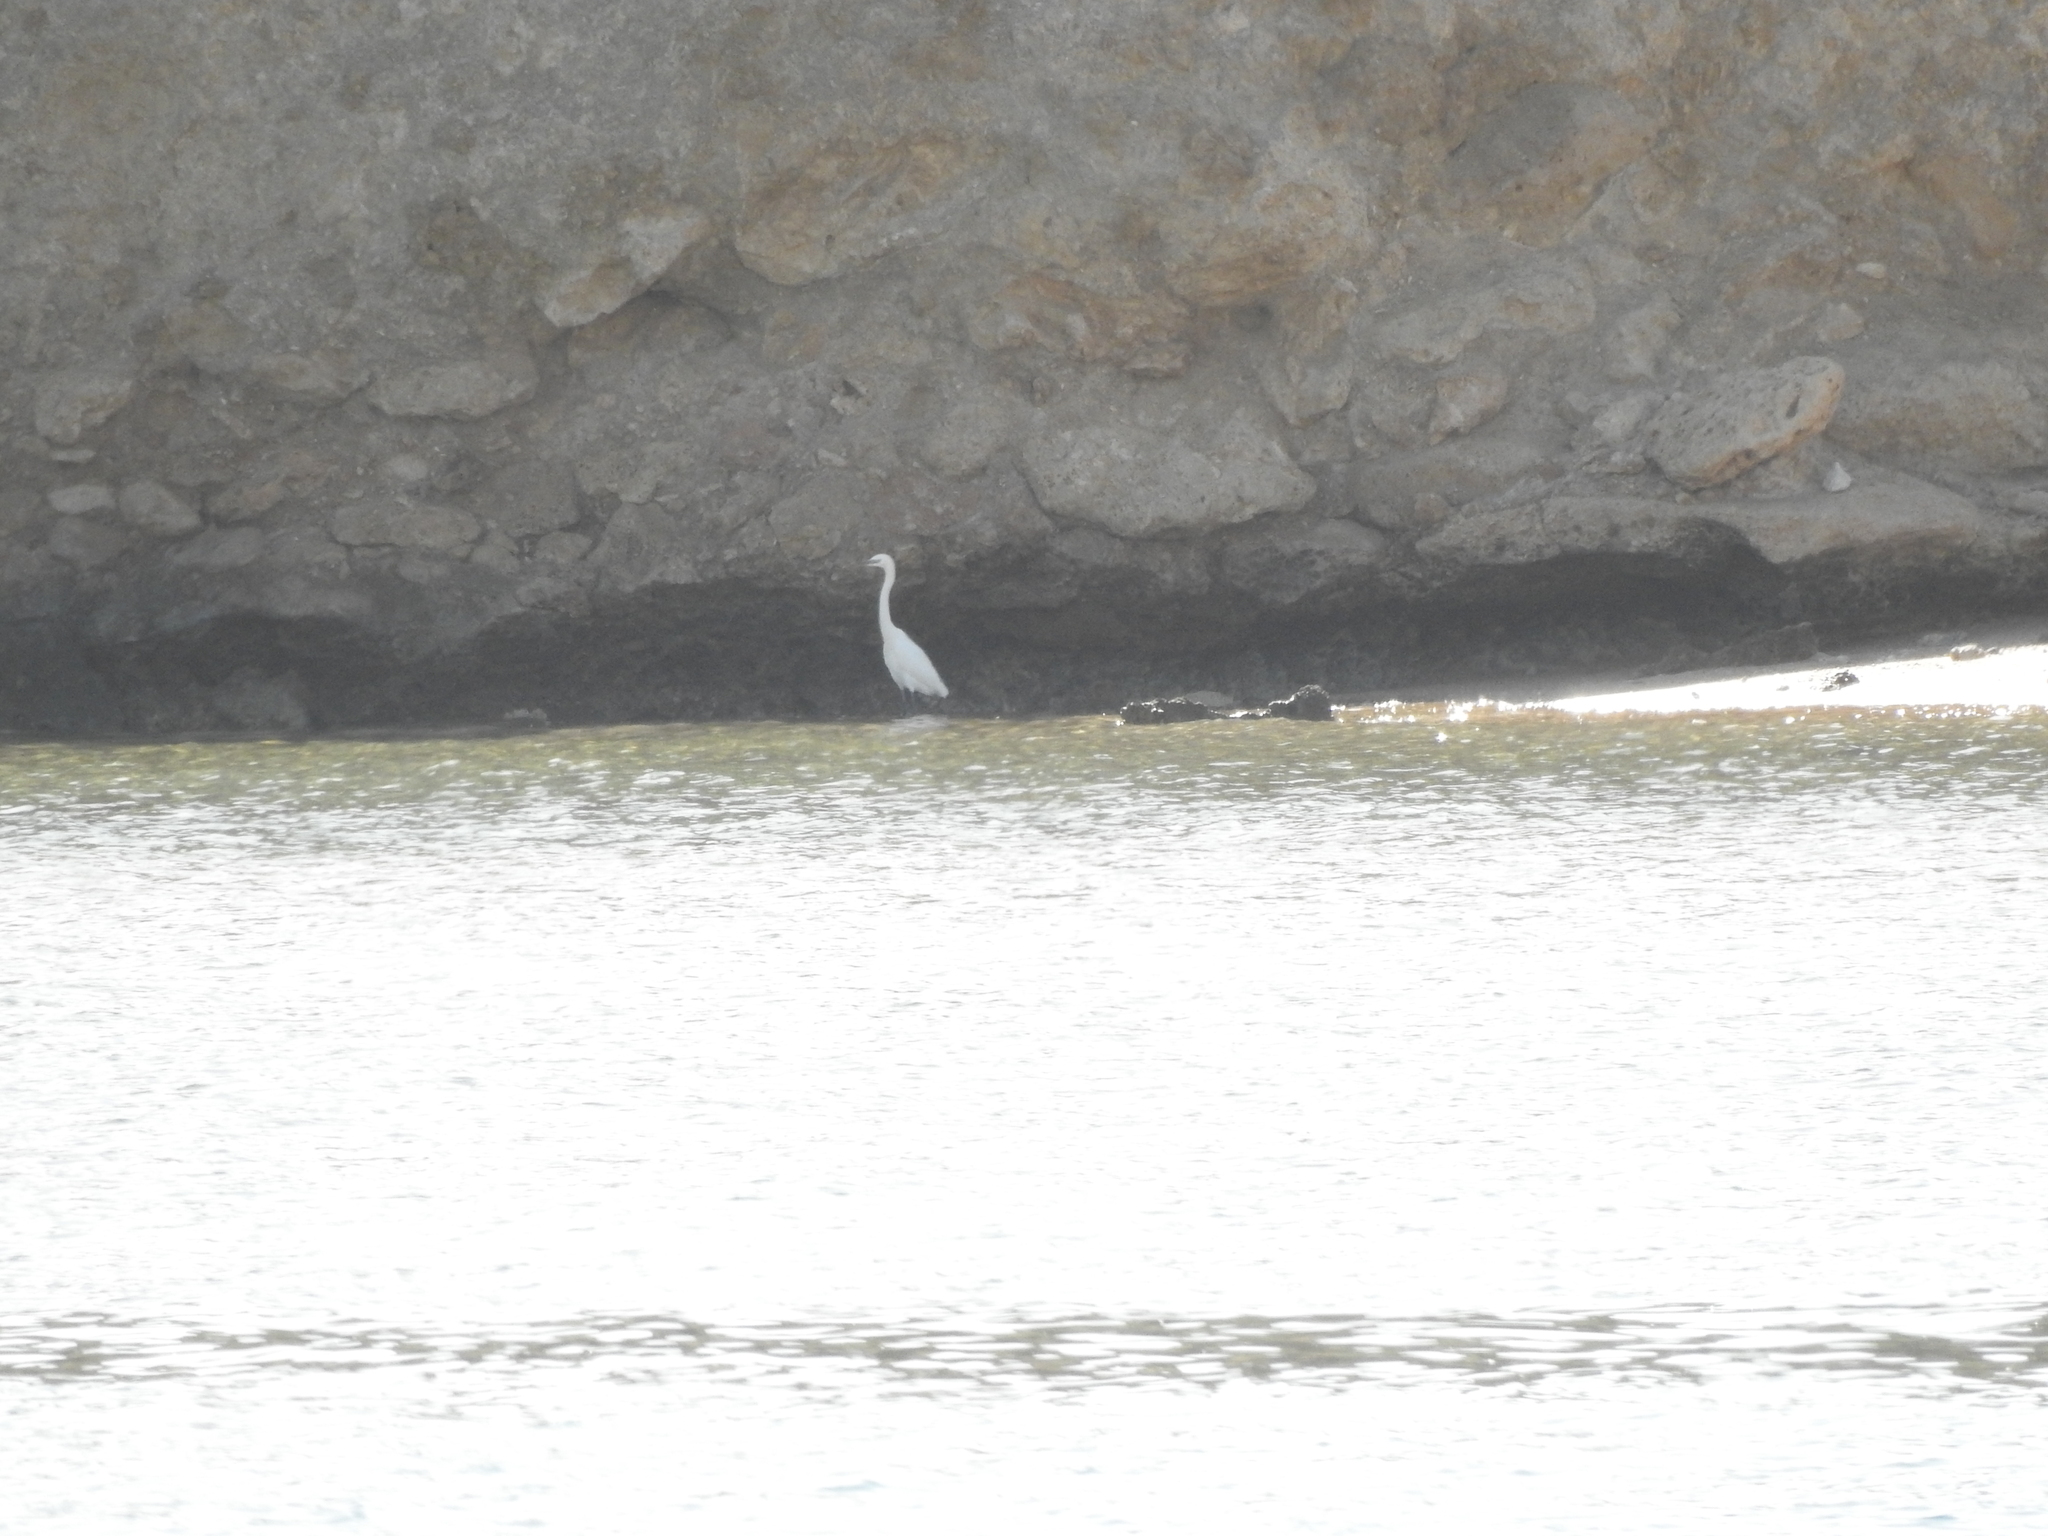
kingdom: Animalia
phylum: Chordata
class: Aves
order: Pelecaniformes
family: Ardeidae
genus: Egretta
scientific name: Egretta garzetta
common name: Little egret
